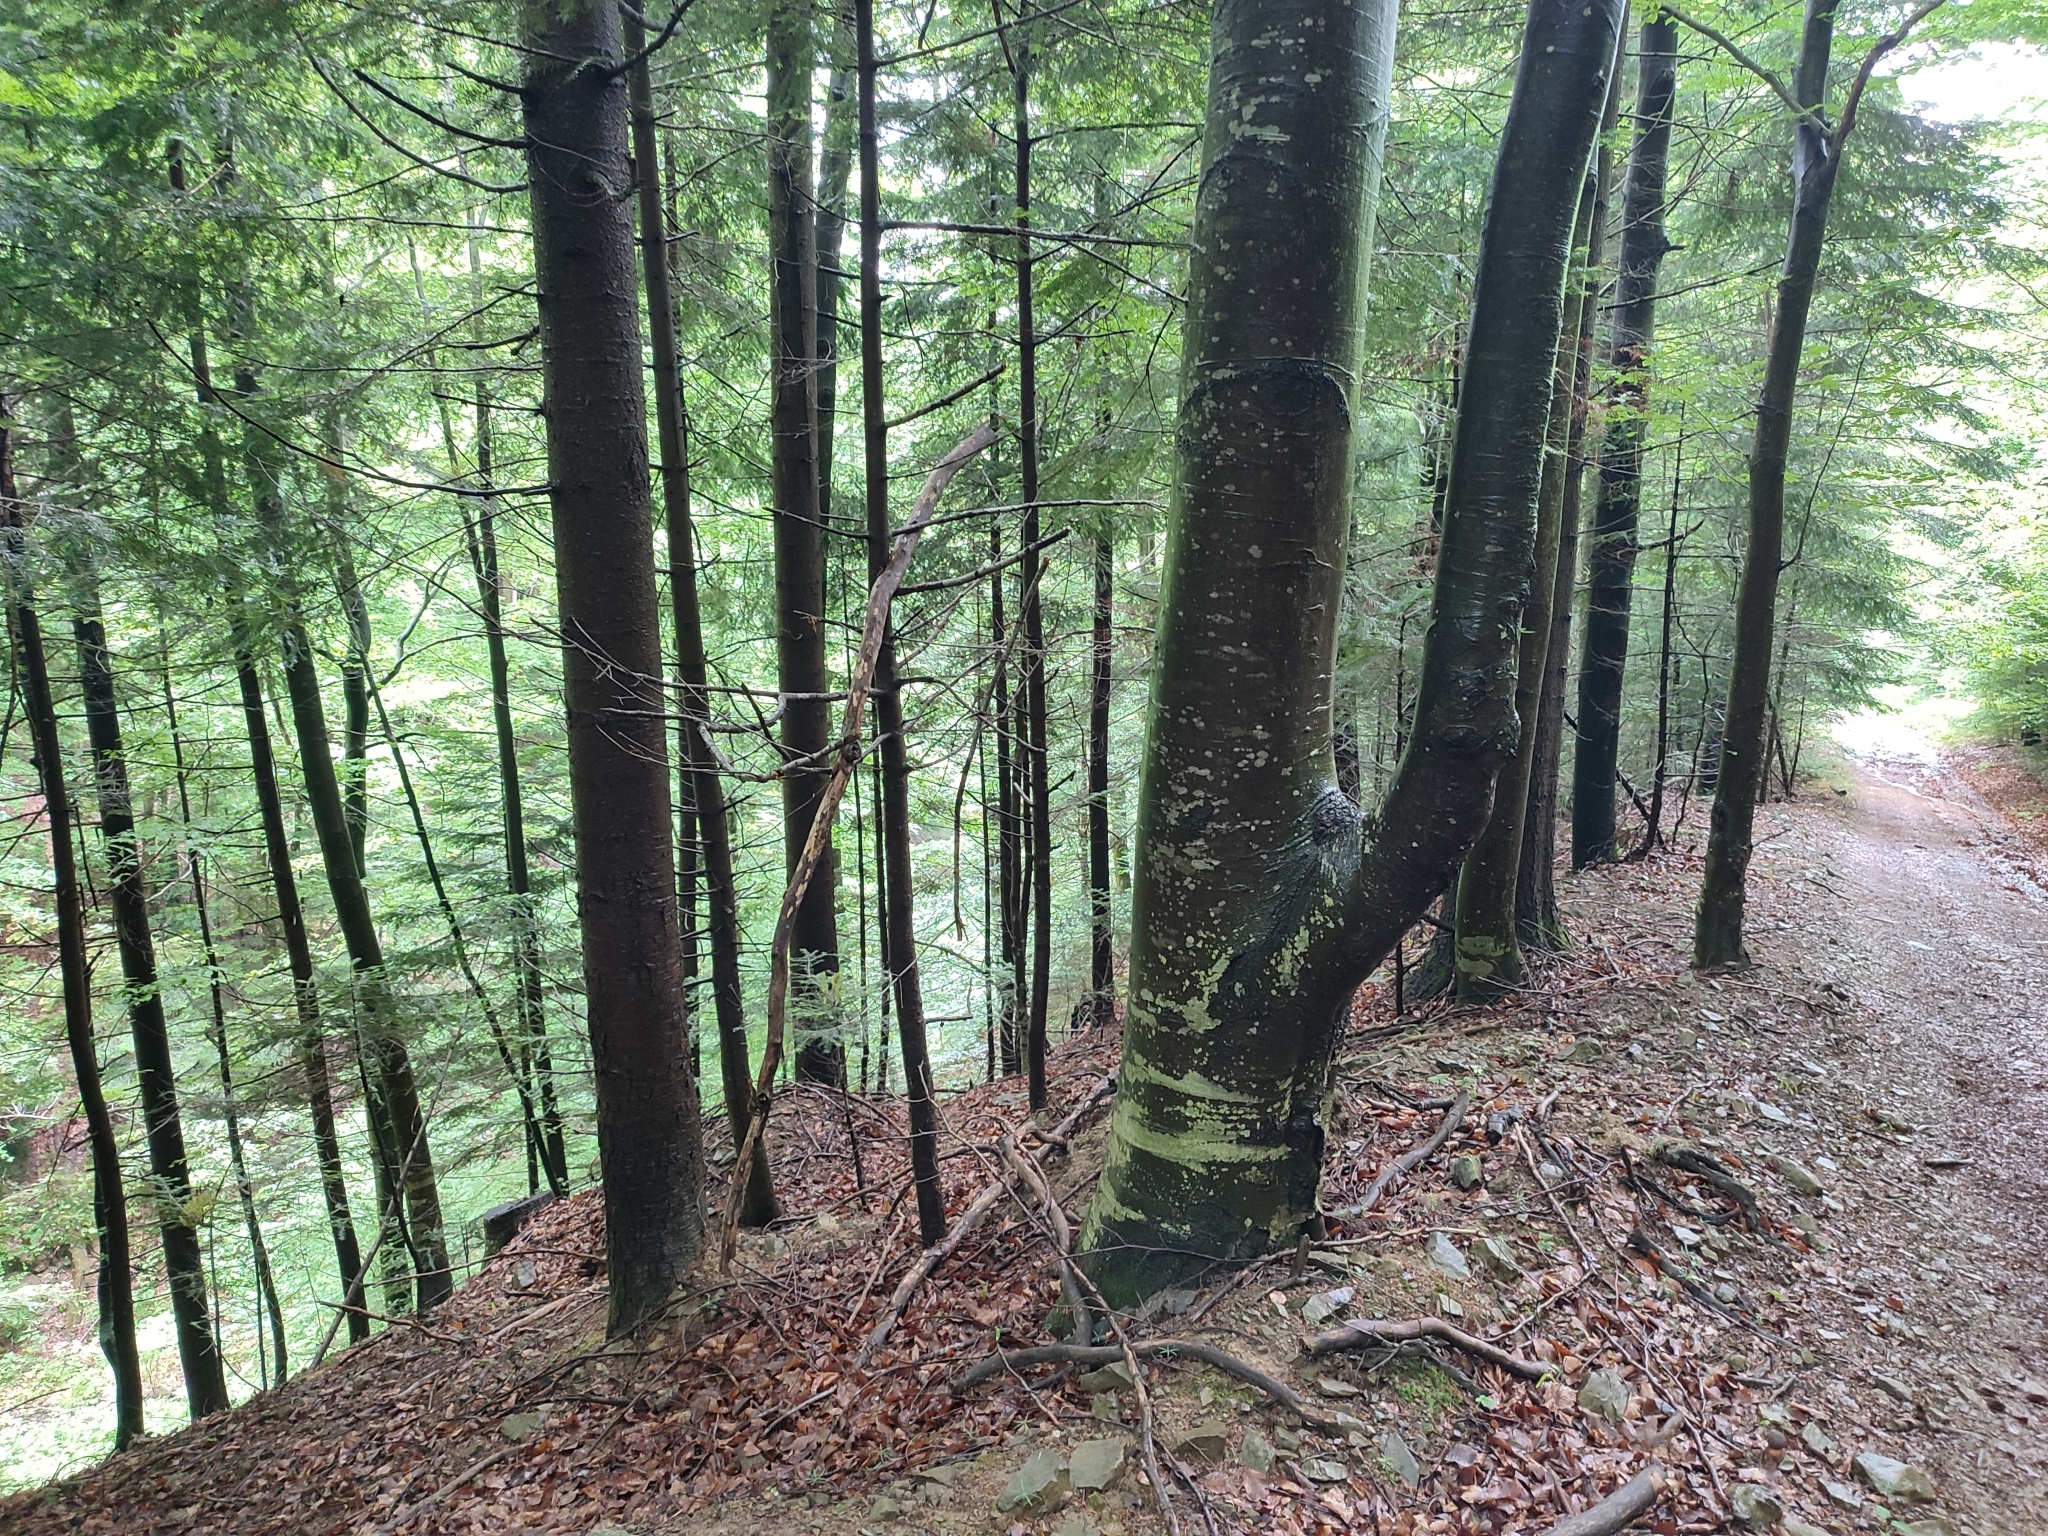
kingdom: Plantae
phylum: Tracheophyta
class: Magnoliopsida
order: Fagales
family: Fagaceae
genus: Fagus
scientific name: Fagus sylvatica
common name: Beech
